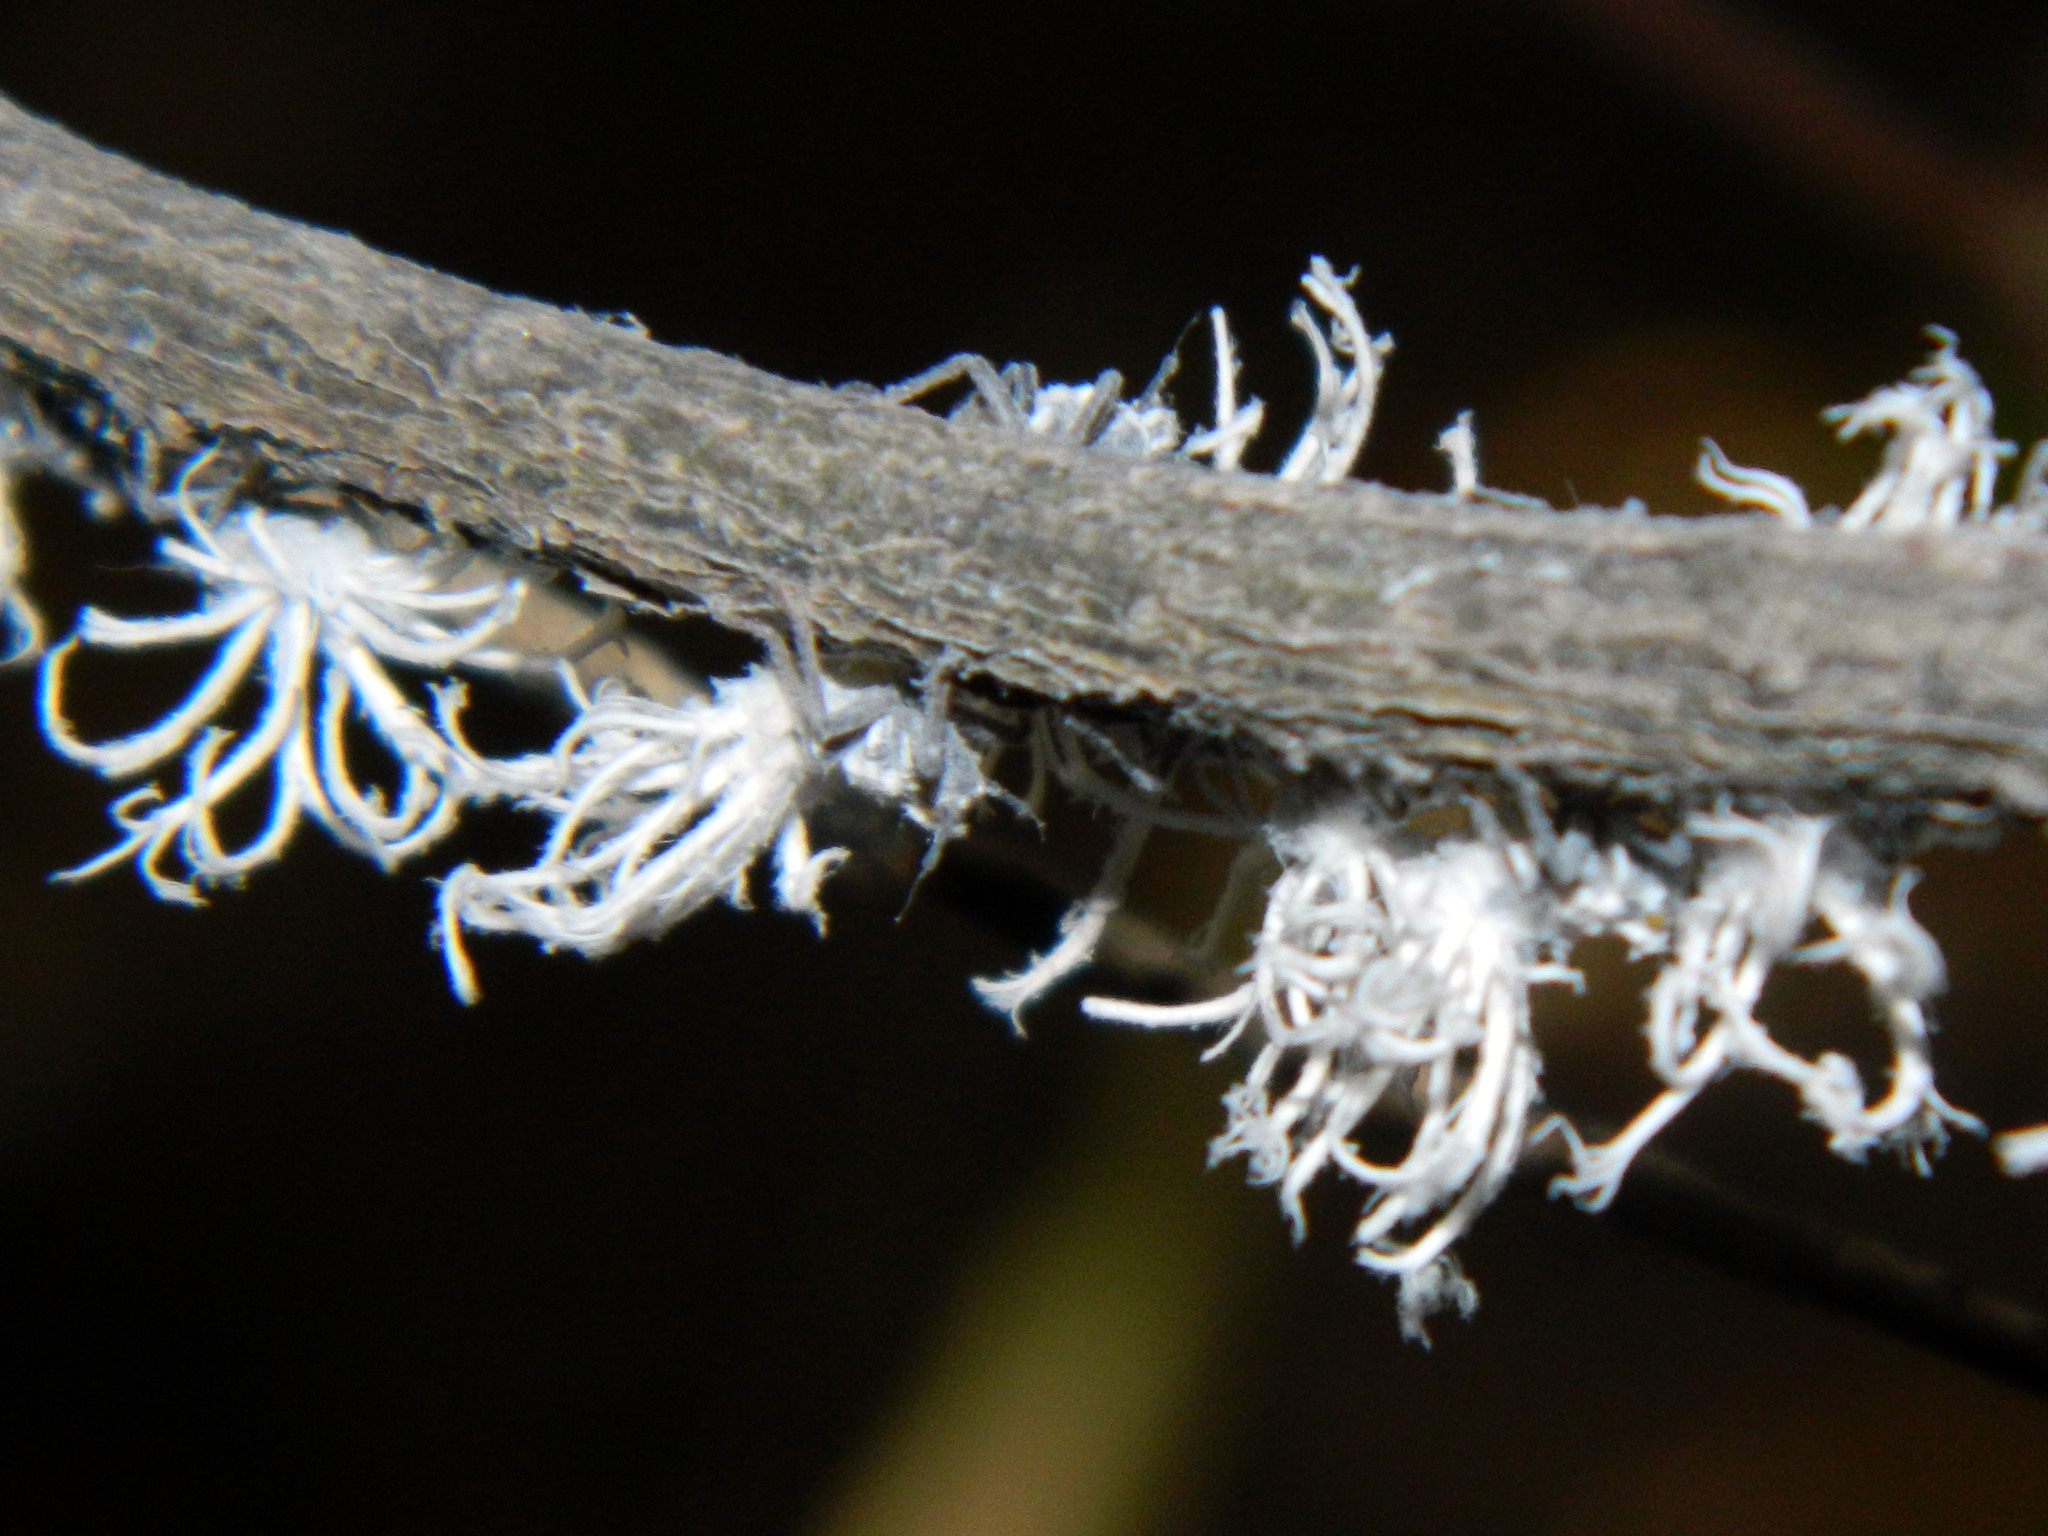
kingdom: Animalia
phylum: Arthropoda
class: Insecta
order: Hemiptera
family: Flatidae
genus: Flatida
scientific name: Flatida rosea
